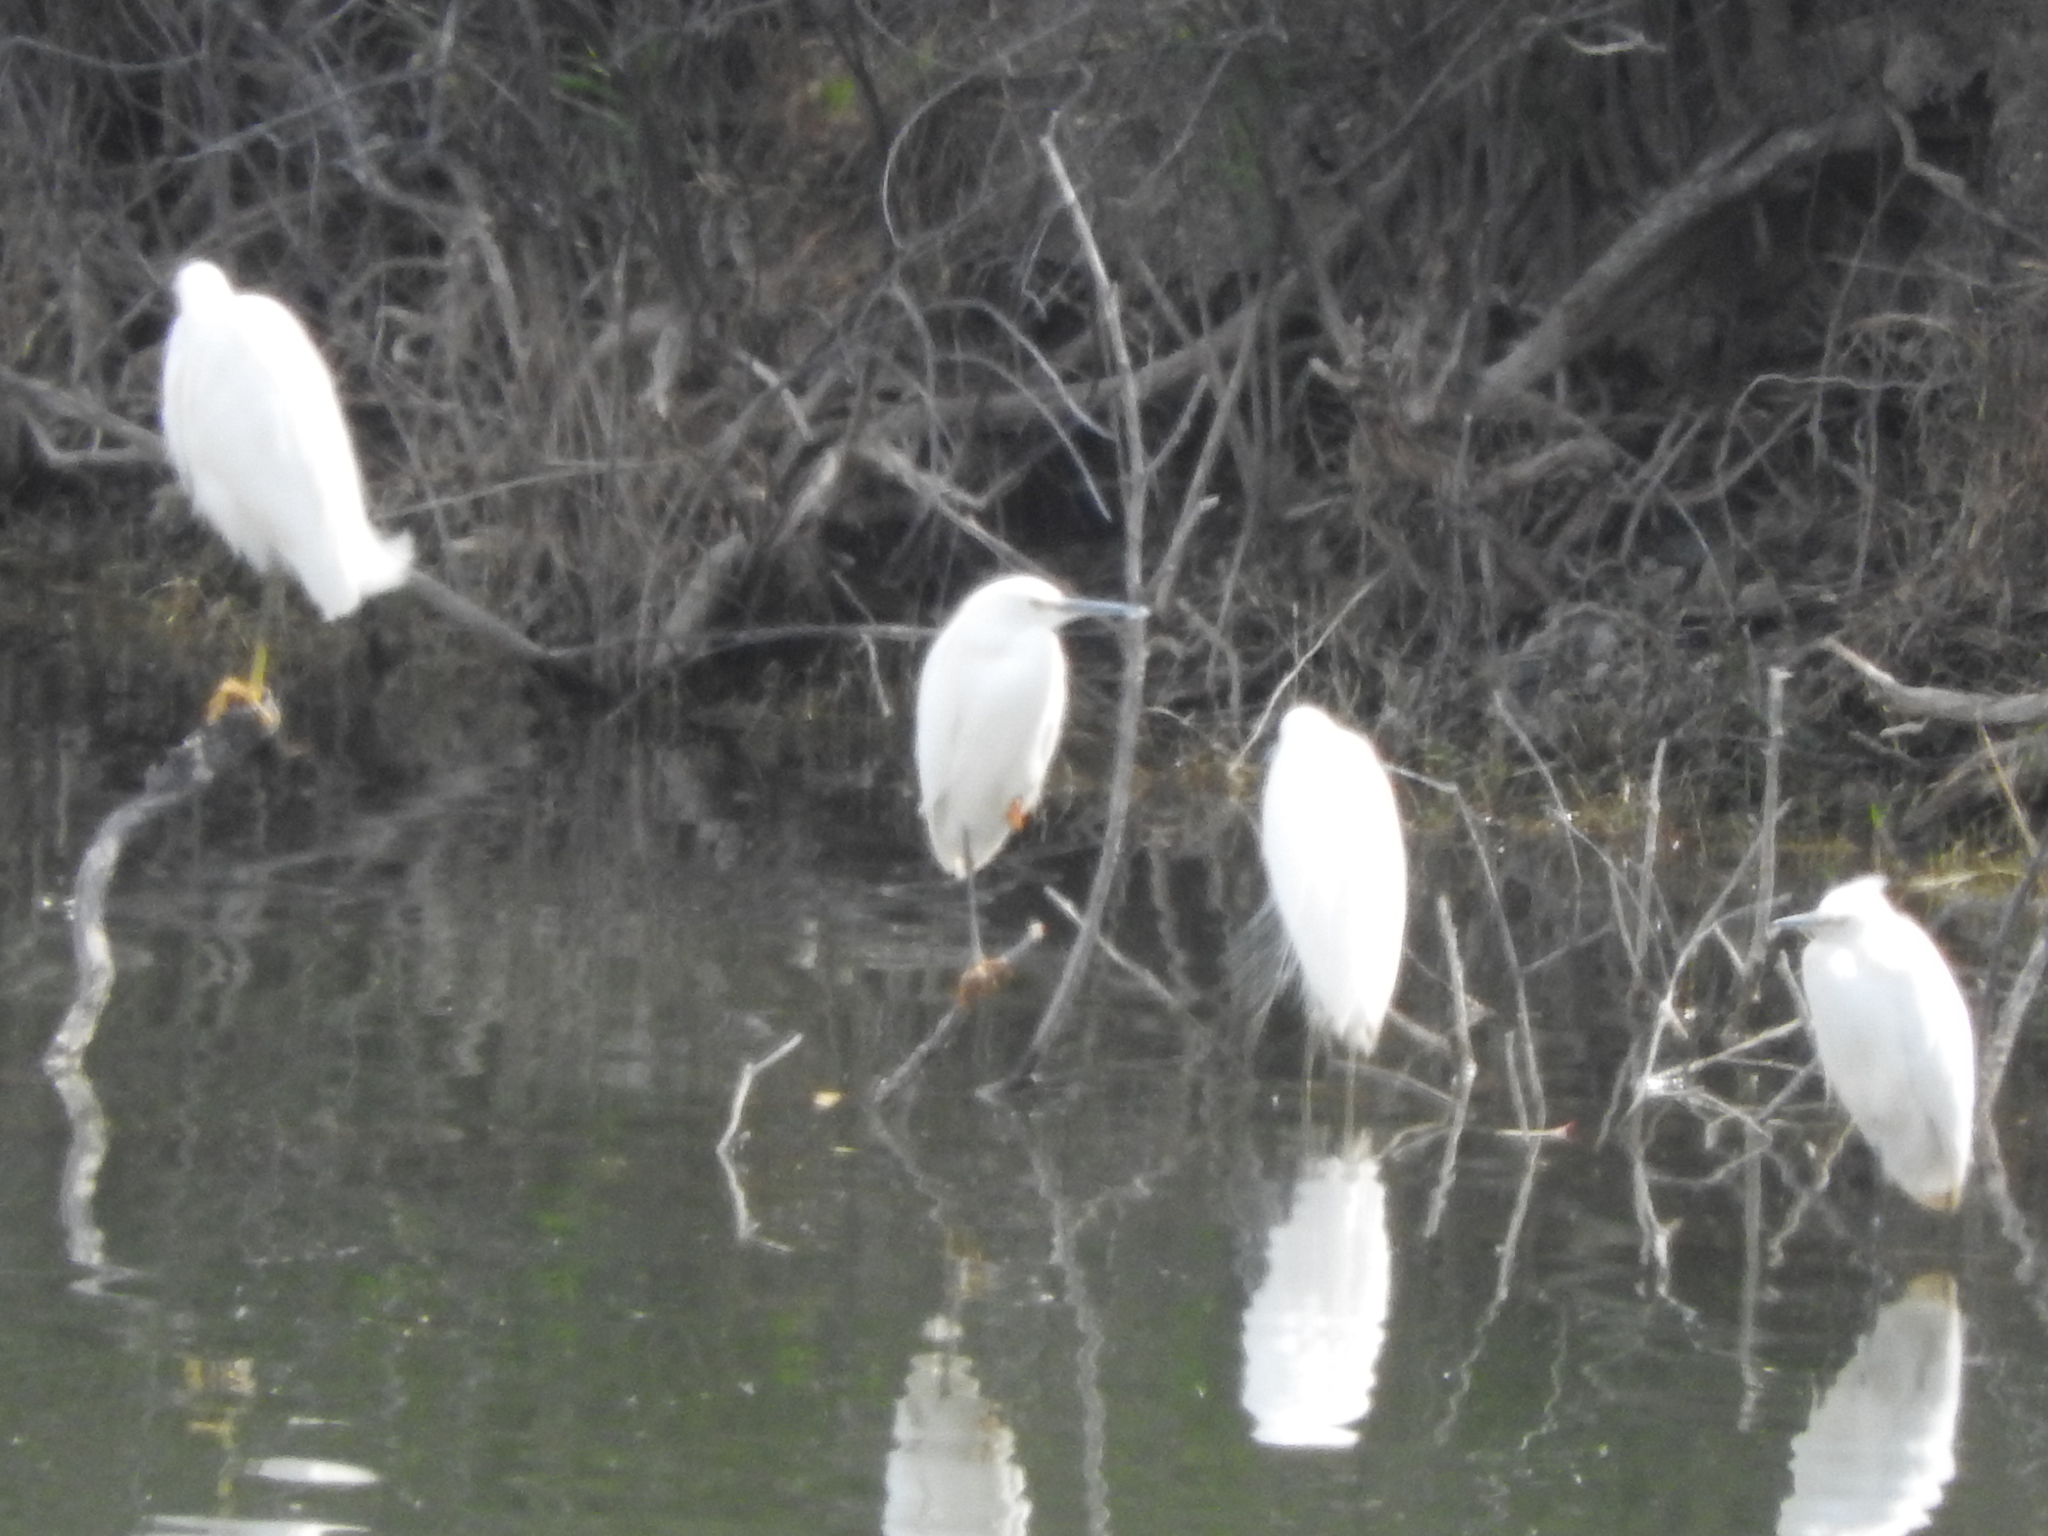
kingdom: Animalia
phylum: Chordata
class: Aves
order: Pelecaniformes
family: Ardeidae
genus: Egretta
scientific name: Egretta thula
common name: Snowy egret
